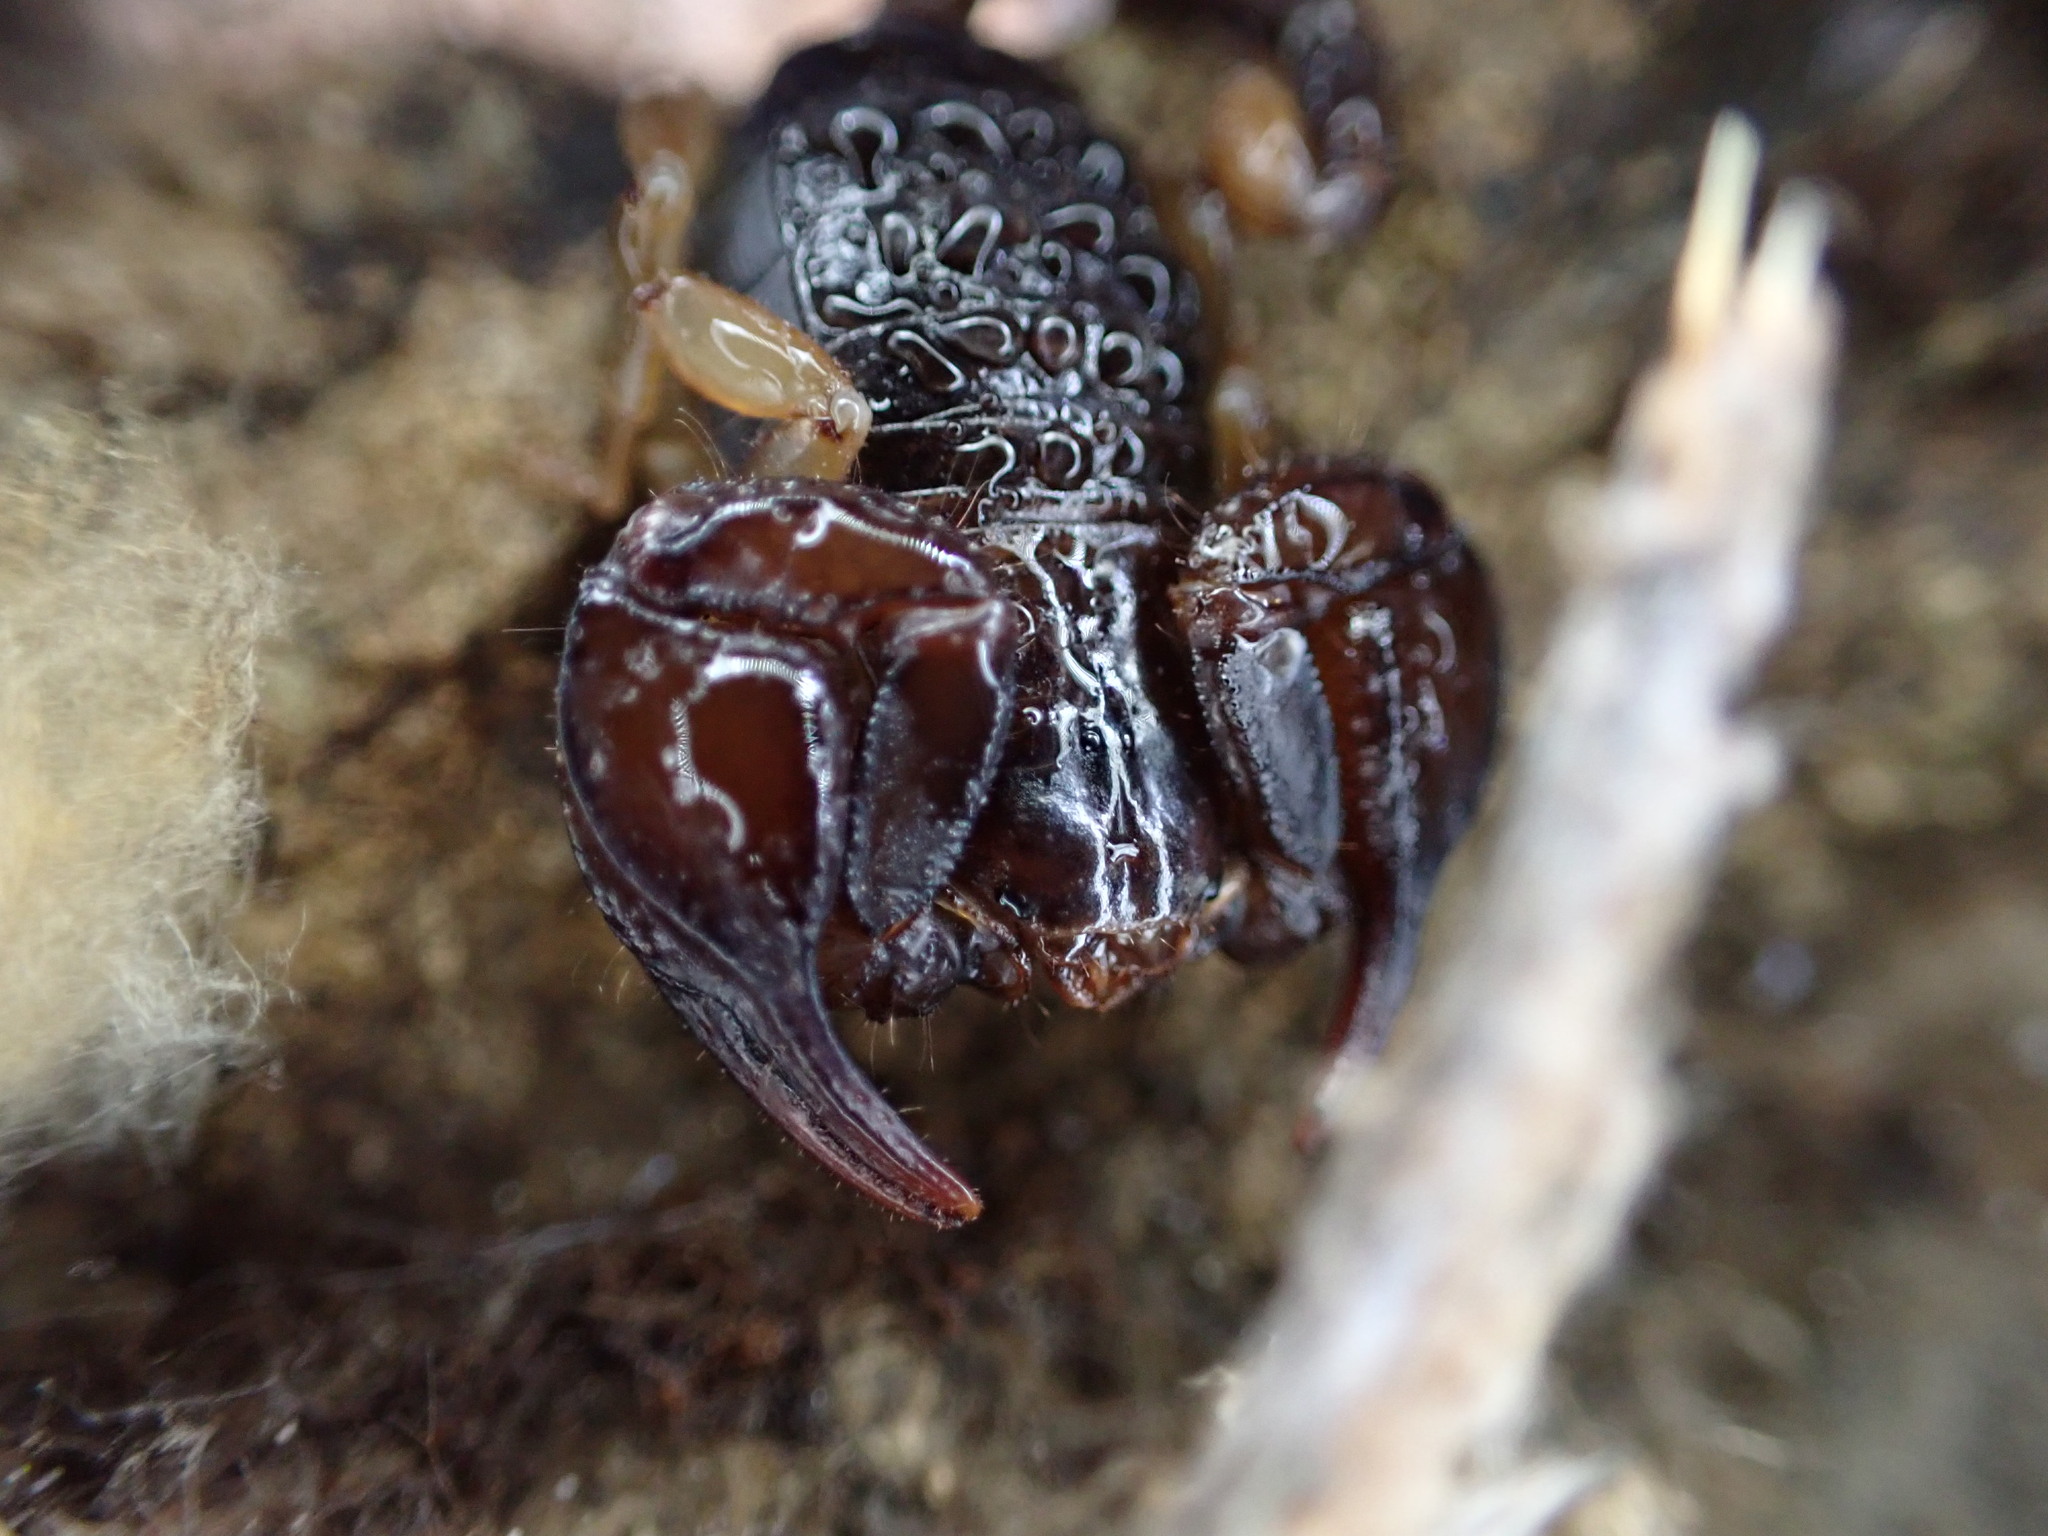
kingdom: Animalia
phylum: Arthropoda
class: Arachnida
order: Scorpiones
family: Euscorpiidae
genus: Euscorpius
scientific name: Euscorpius
